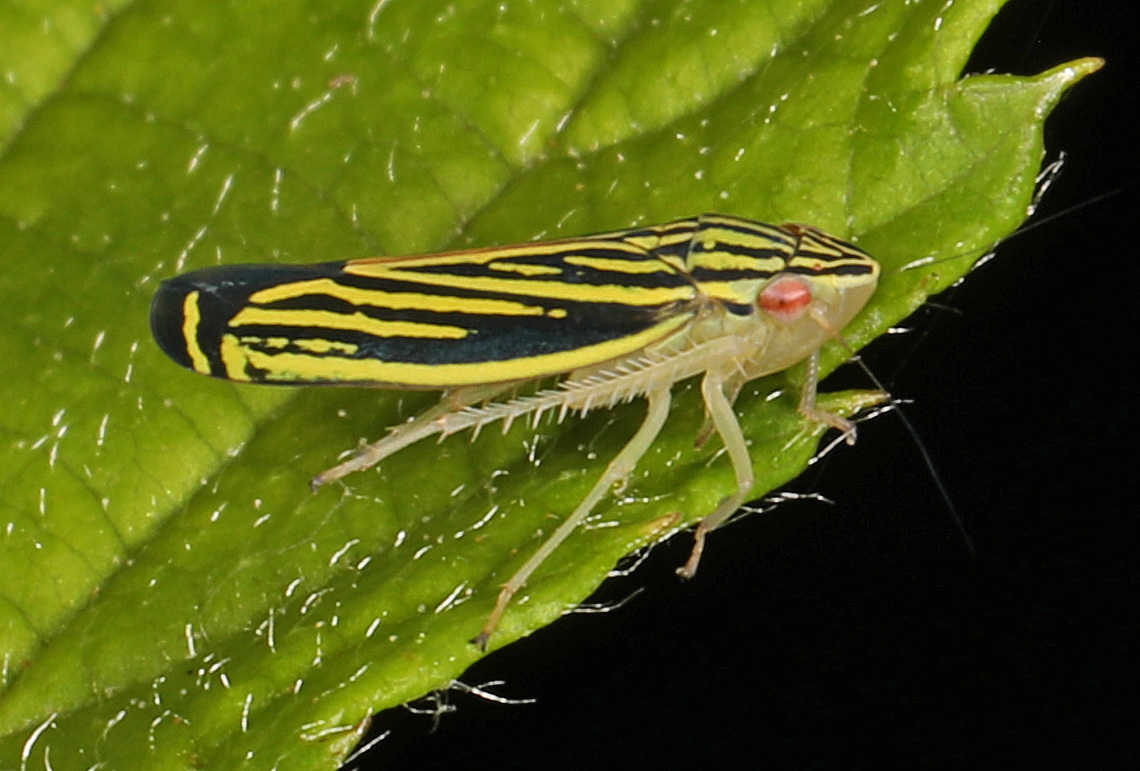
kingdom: Animalia
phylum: Arthropoda
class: Insecta
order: Hemiptera
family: Cicadellidae
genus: Sibovia
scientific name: Sibovia occatoria
